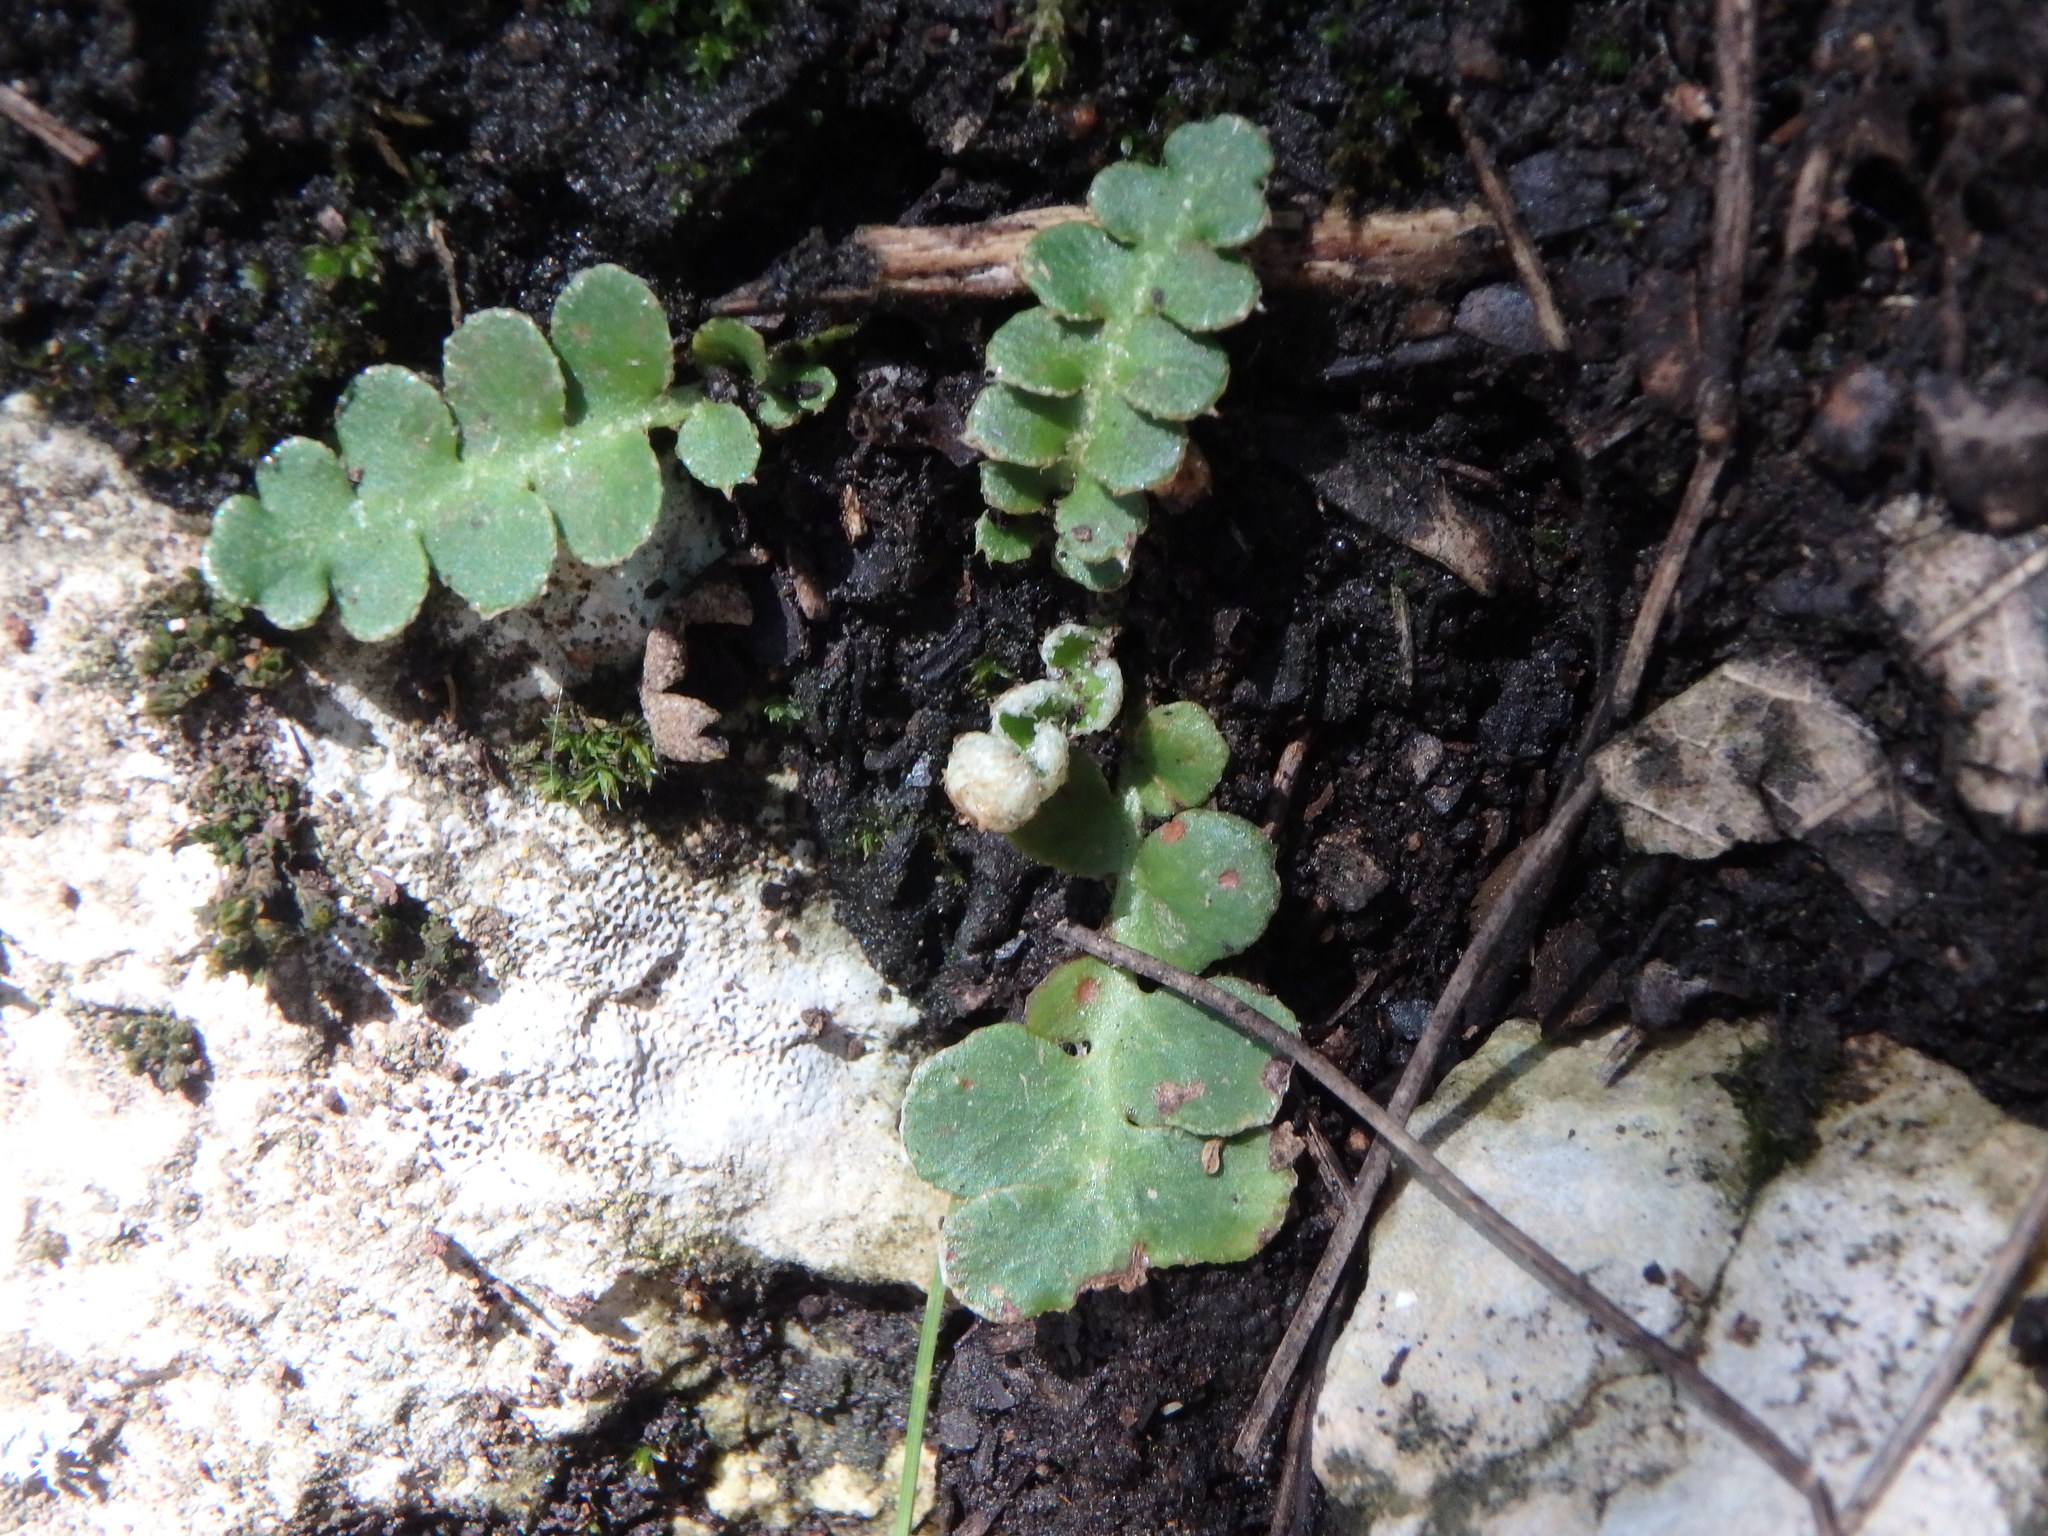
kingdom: Plantae
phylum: Tracheophyta
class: Polypodiopsida
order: Polypodiales
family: Aspleniaceae
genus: Asplenium
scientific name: Asplenium ceterach
